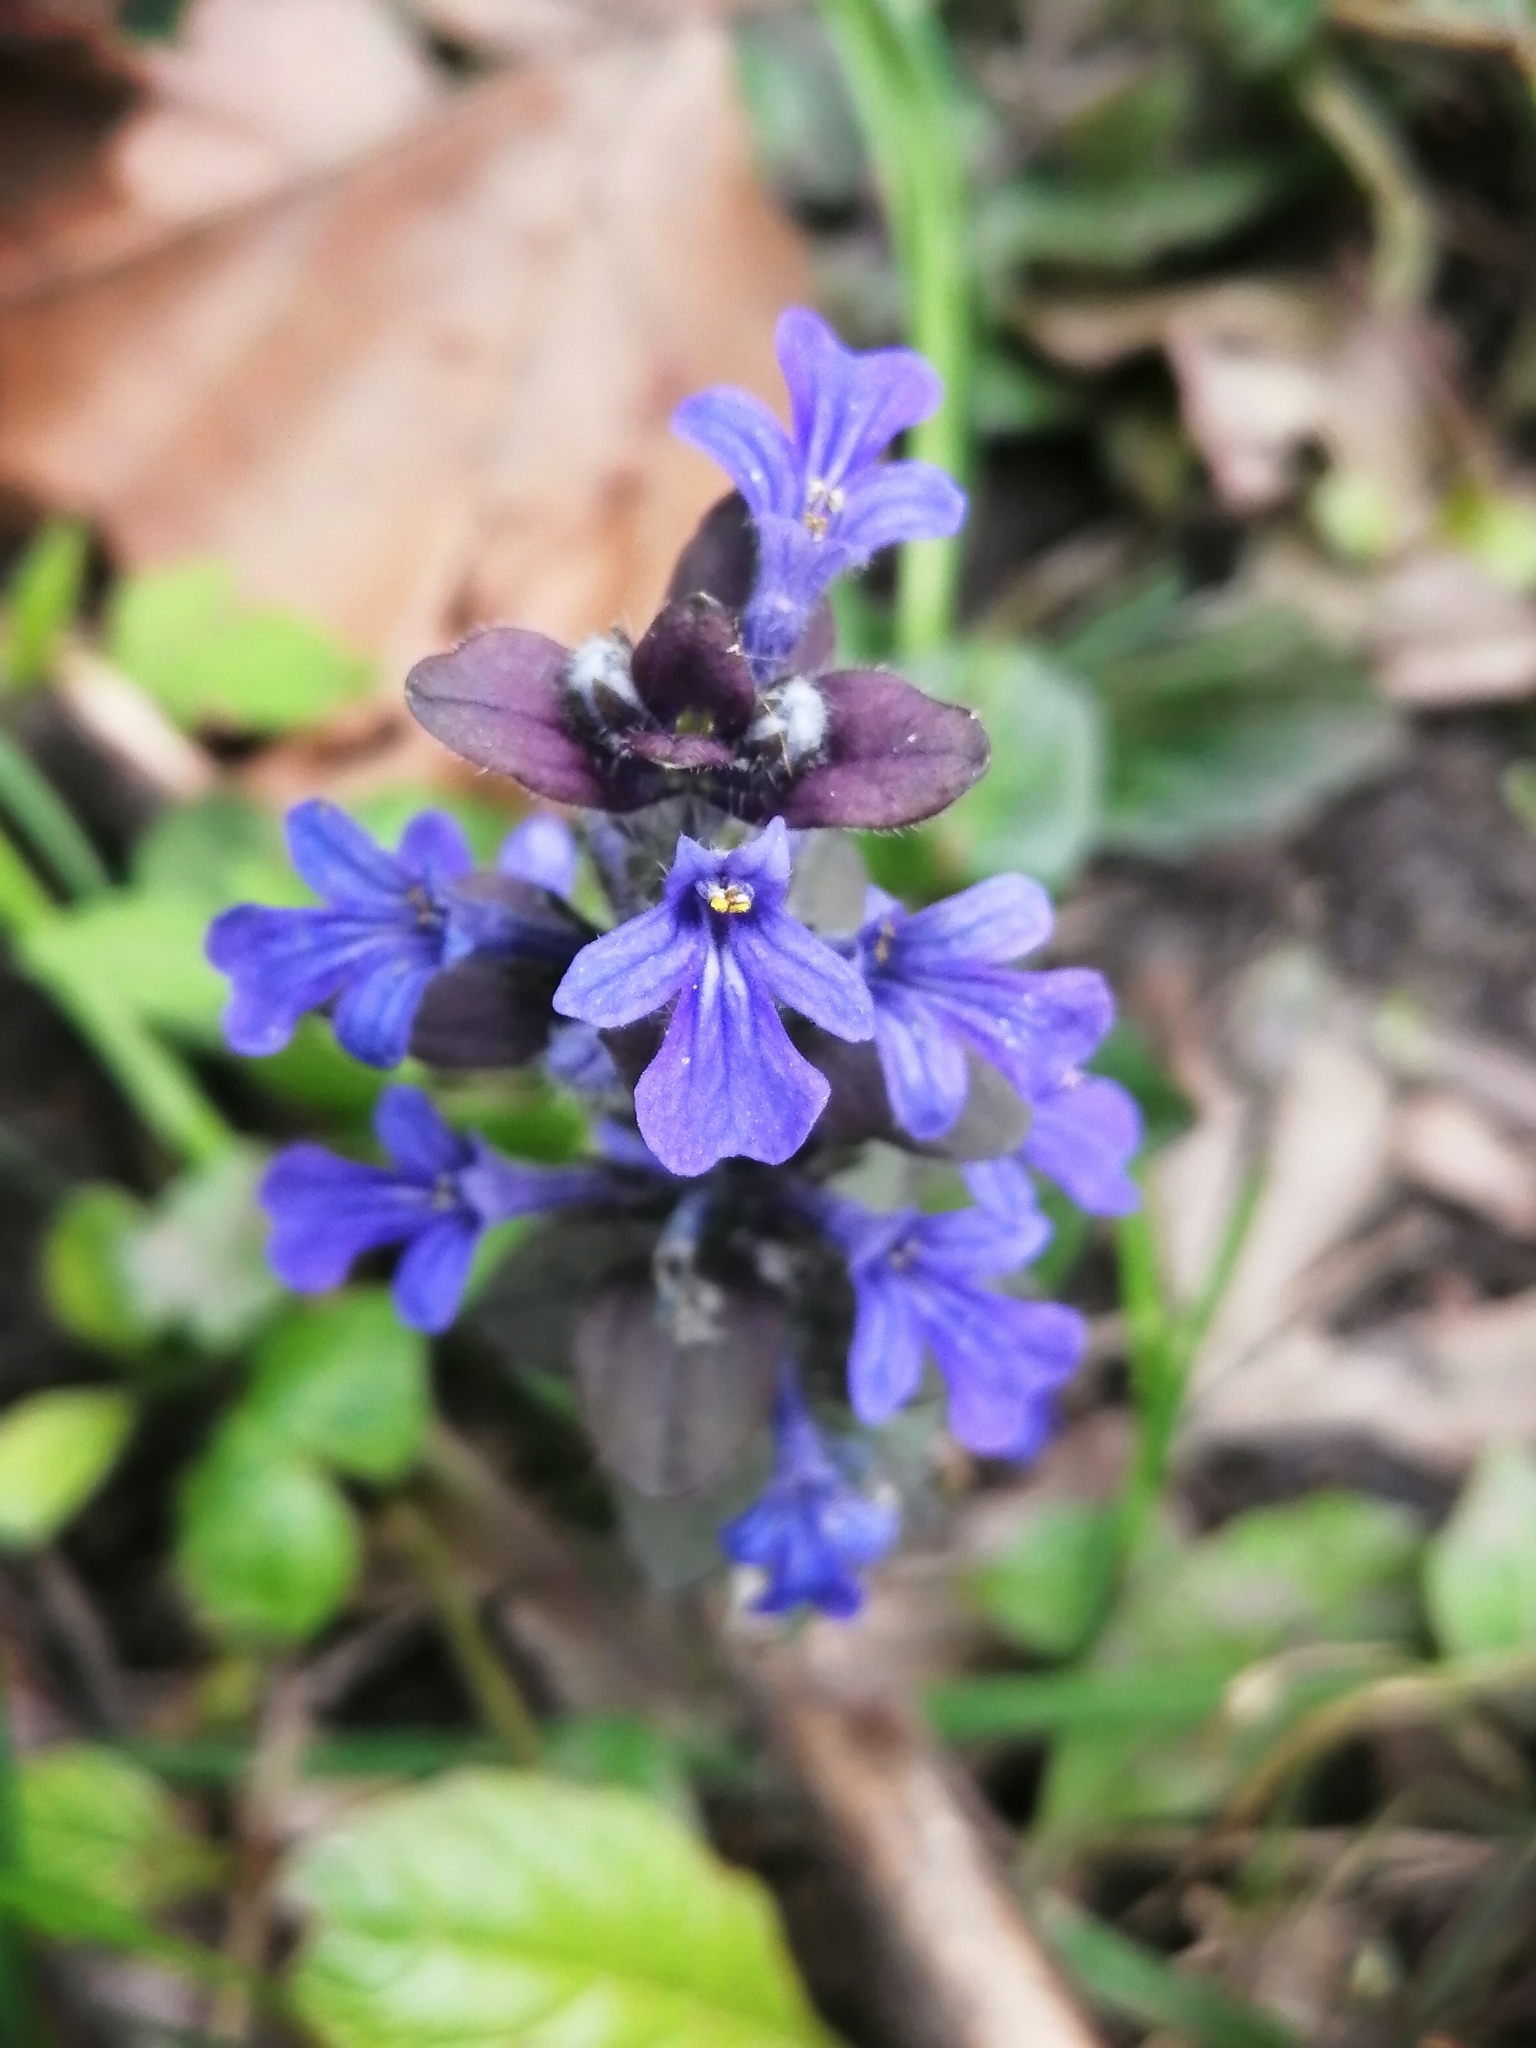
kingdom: Plantae
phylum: Tracheophyta
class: Magnoliopsida
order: Lamiales
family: Lamiaceae
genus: Ajuga
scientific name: Ajuga reptans
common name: Bugle
